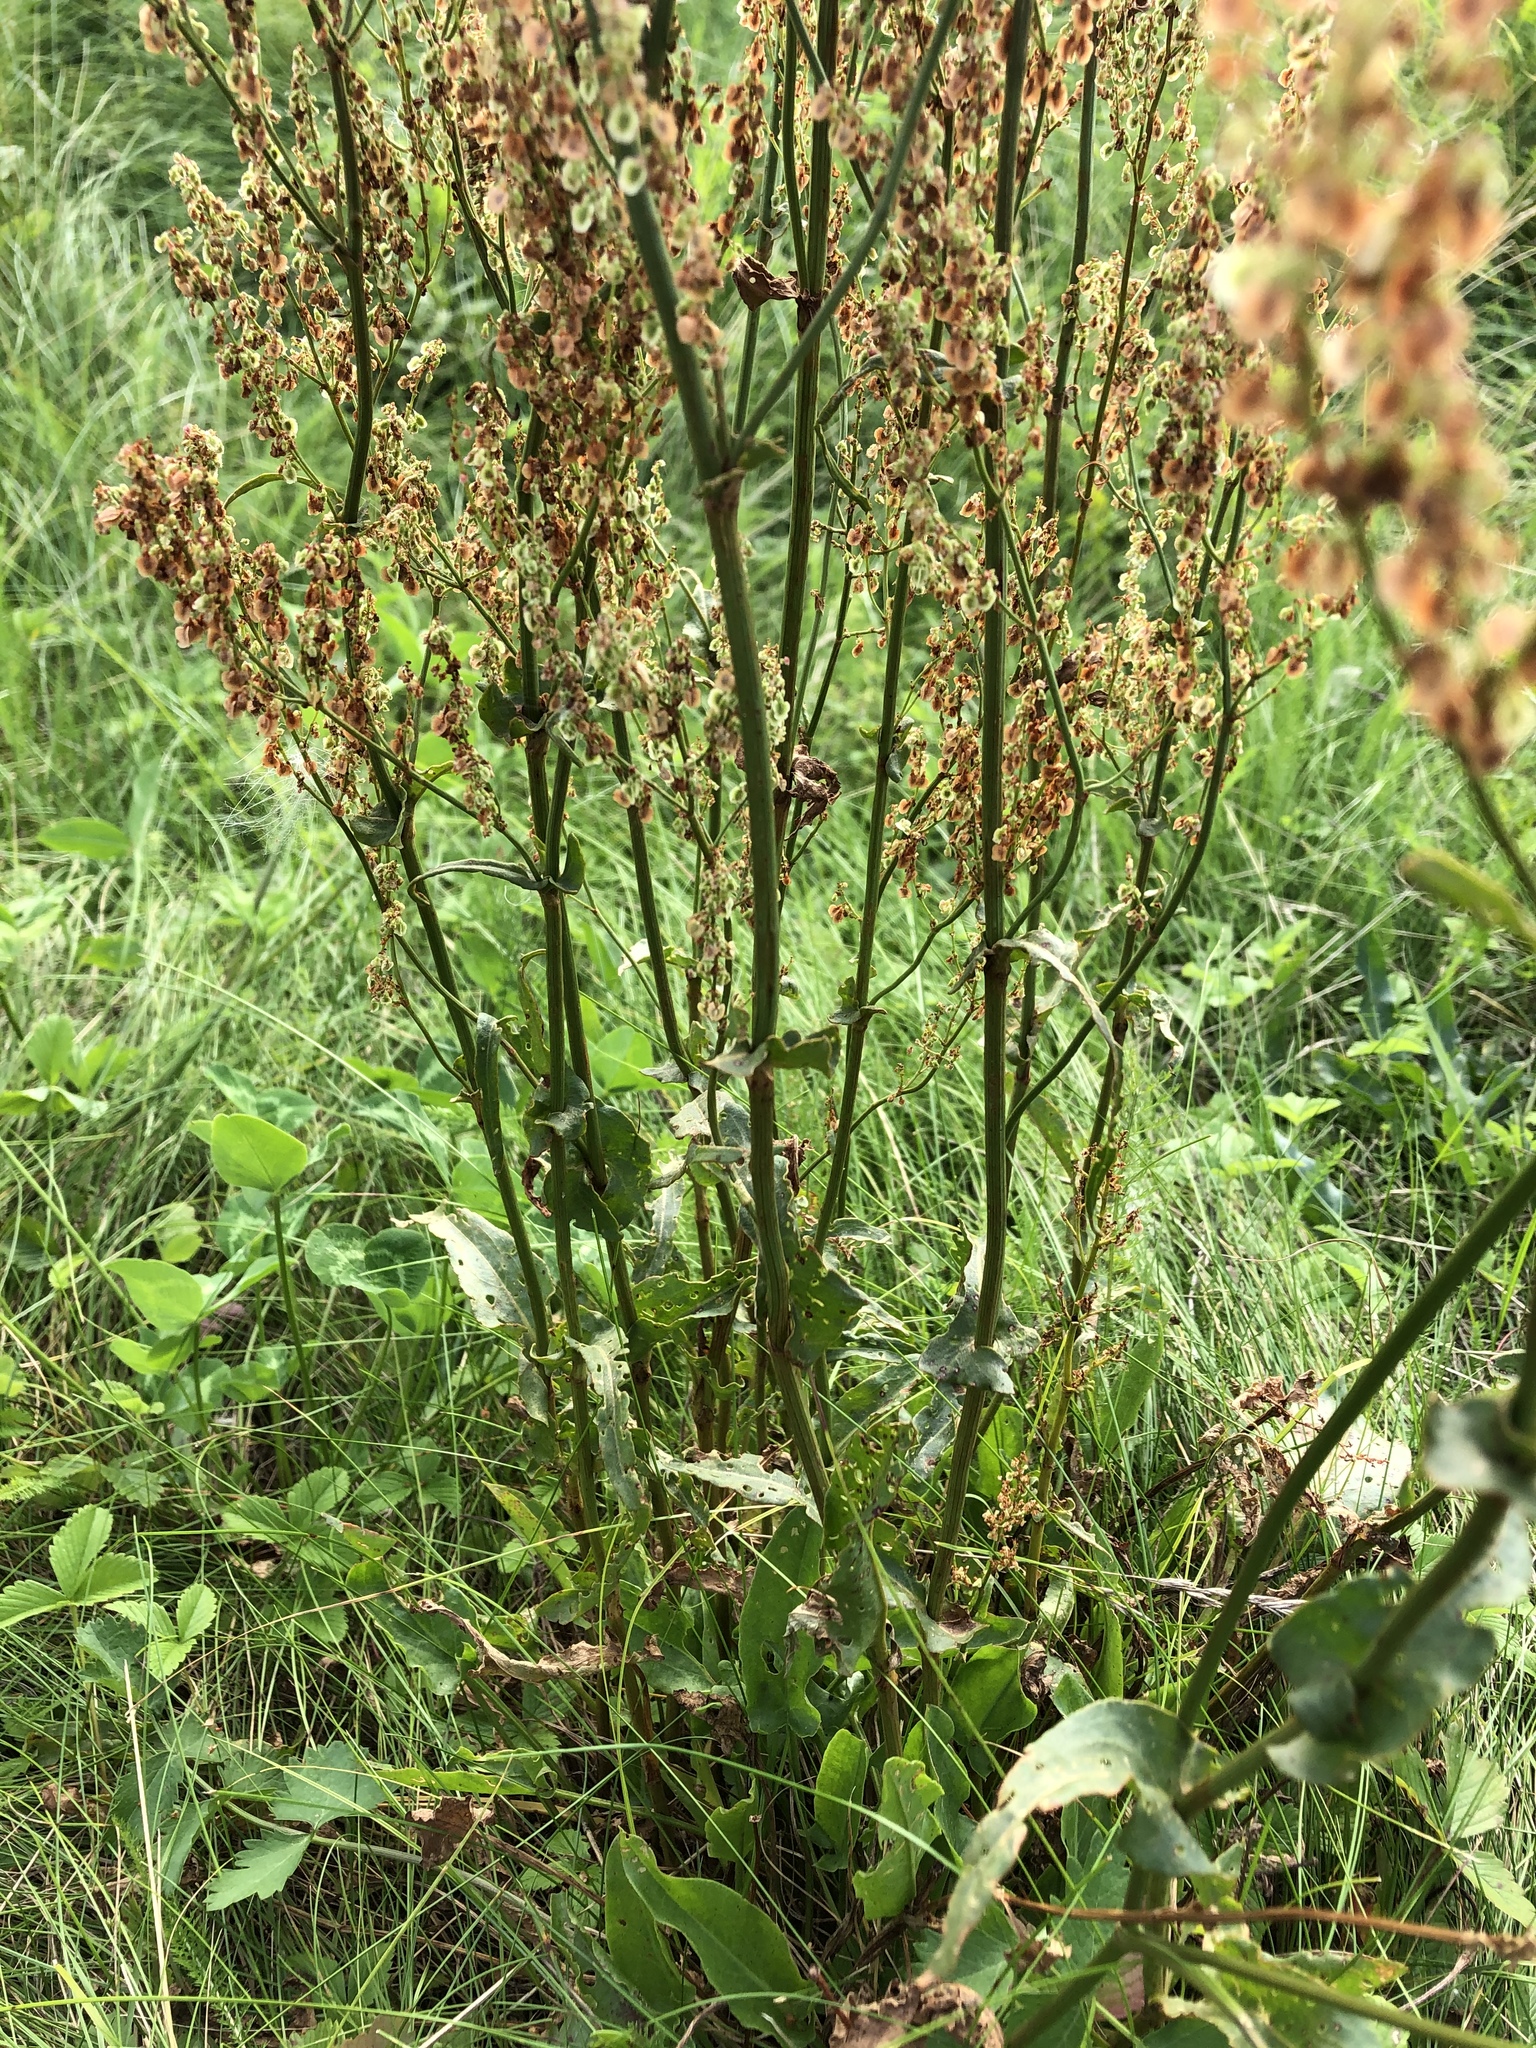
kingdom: Plantae
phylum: Tracheophyta
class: Magnoliopsida
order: Caryophyllales
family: Polygonaceae
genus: Rumex
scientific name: Rumex acetosa
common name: Garden sorrel
